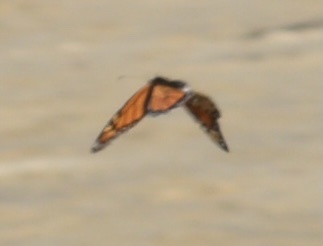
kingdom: Animalia
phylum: Arthropoda
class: Insecta
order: Lepidoptera
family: Nymphalidae
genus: Danaus
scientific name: Danaus plexippus
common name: Monarch
